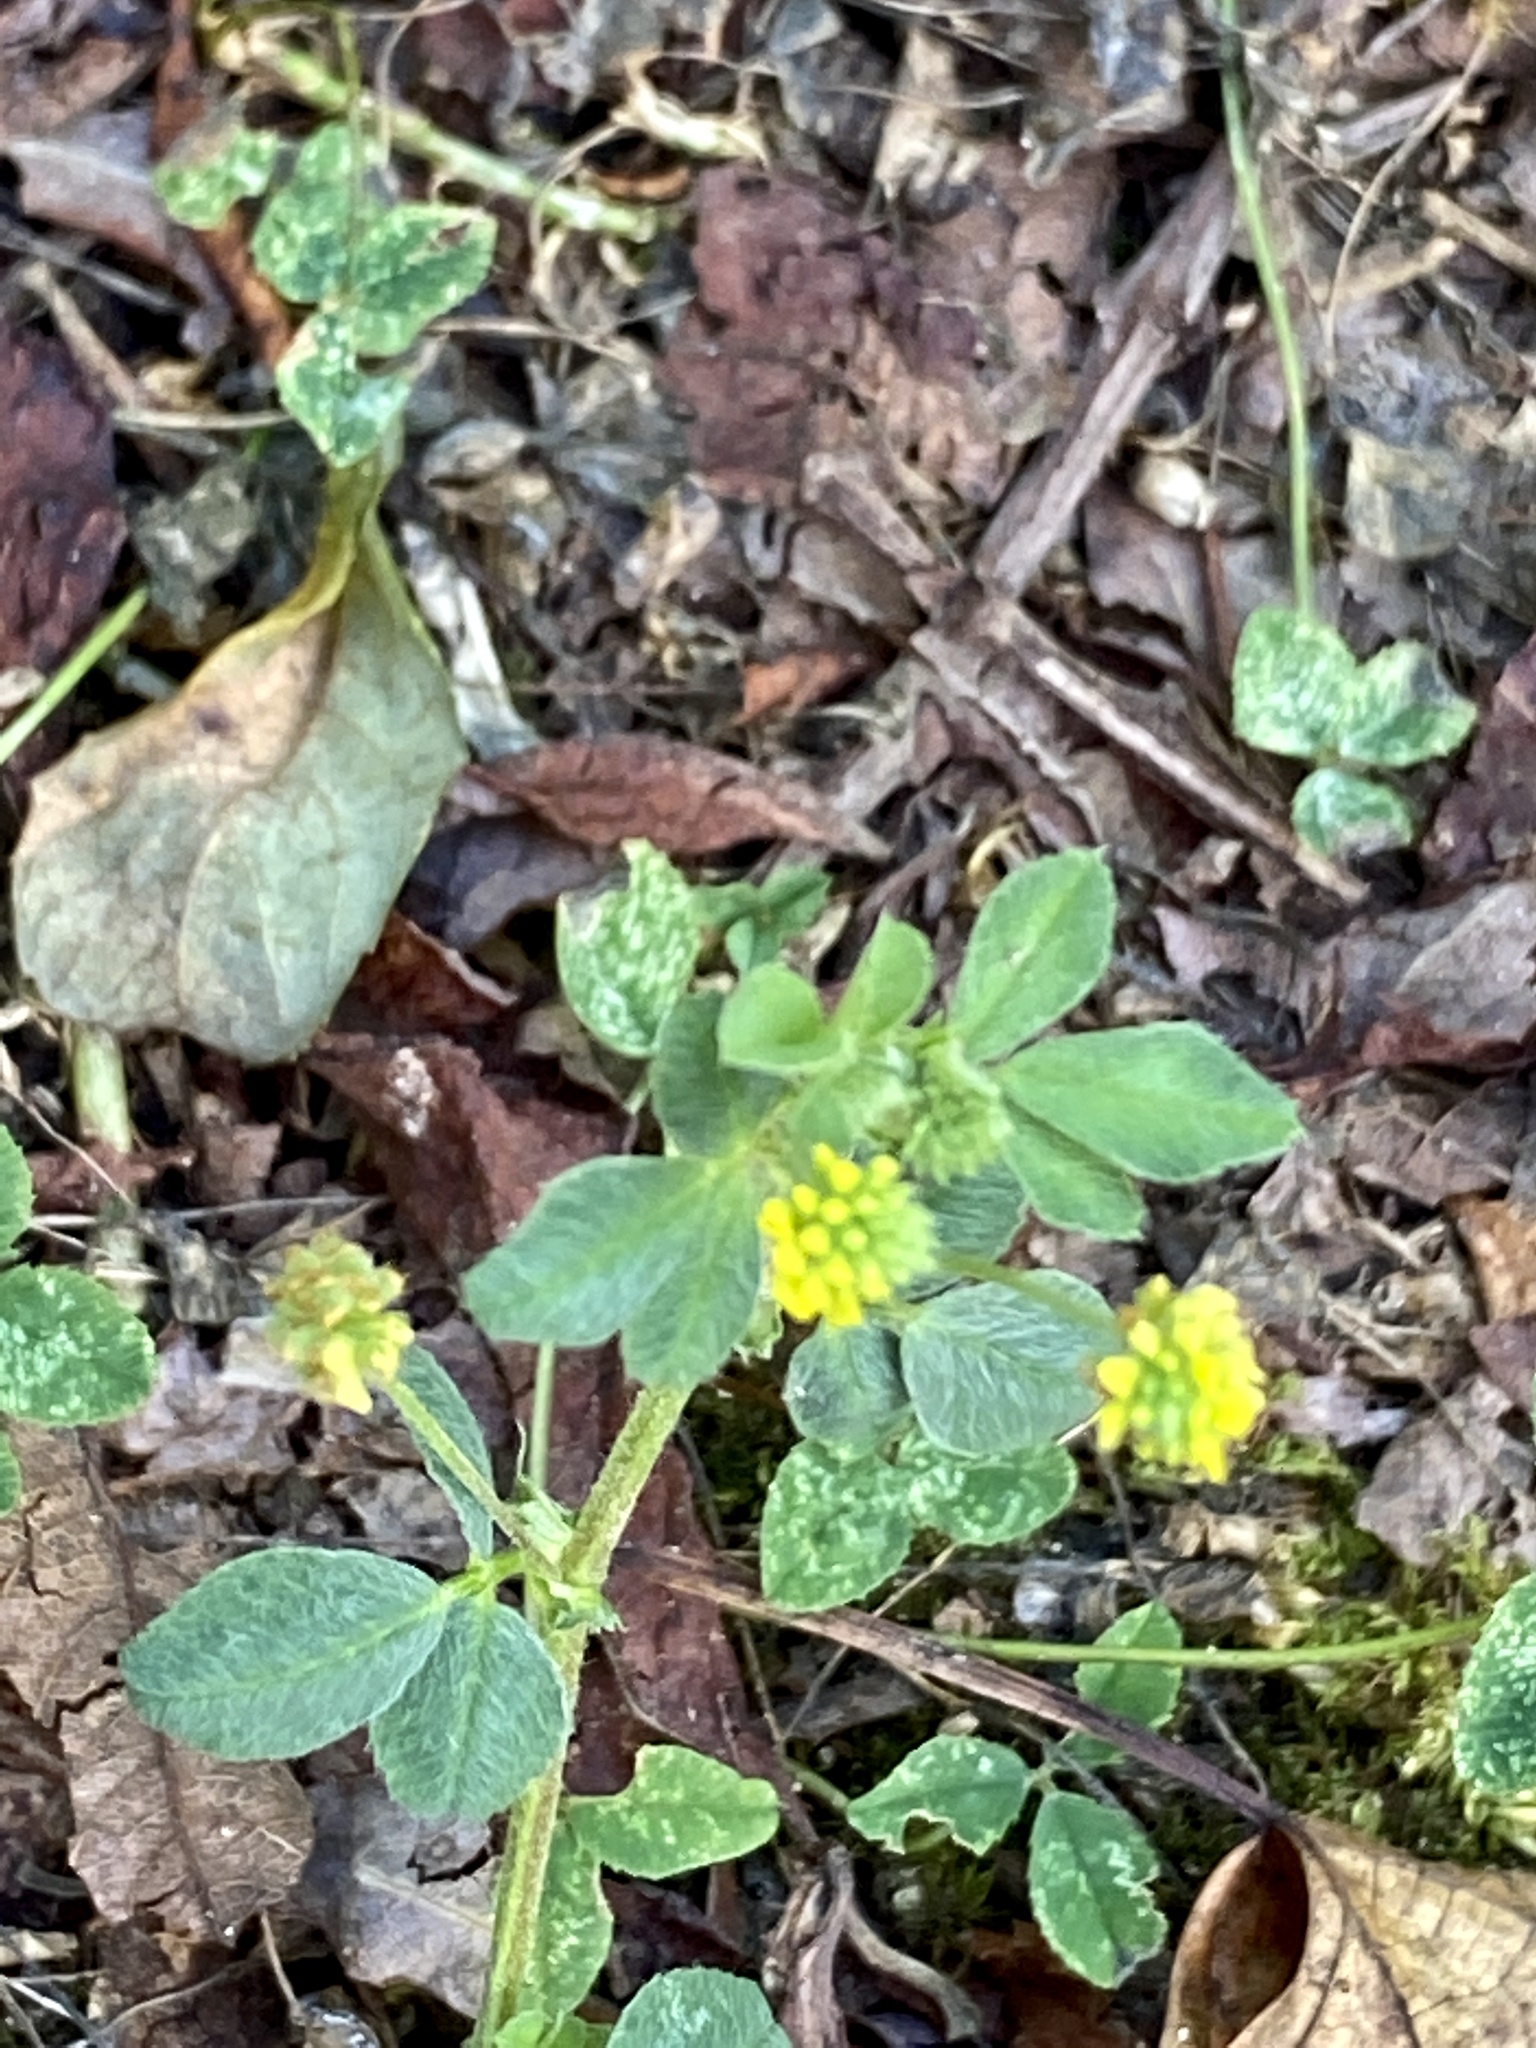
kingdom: Plantae
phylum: Tracheophyta
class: Magnoliopsida
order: Fabales
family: Fabaceae
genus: Medicago
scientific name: Medicago lupulina
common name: Black medick
